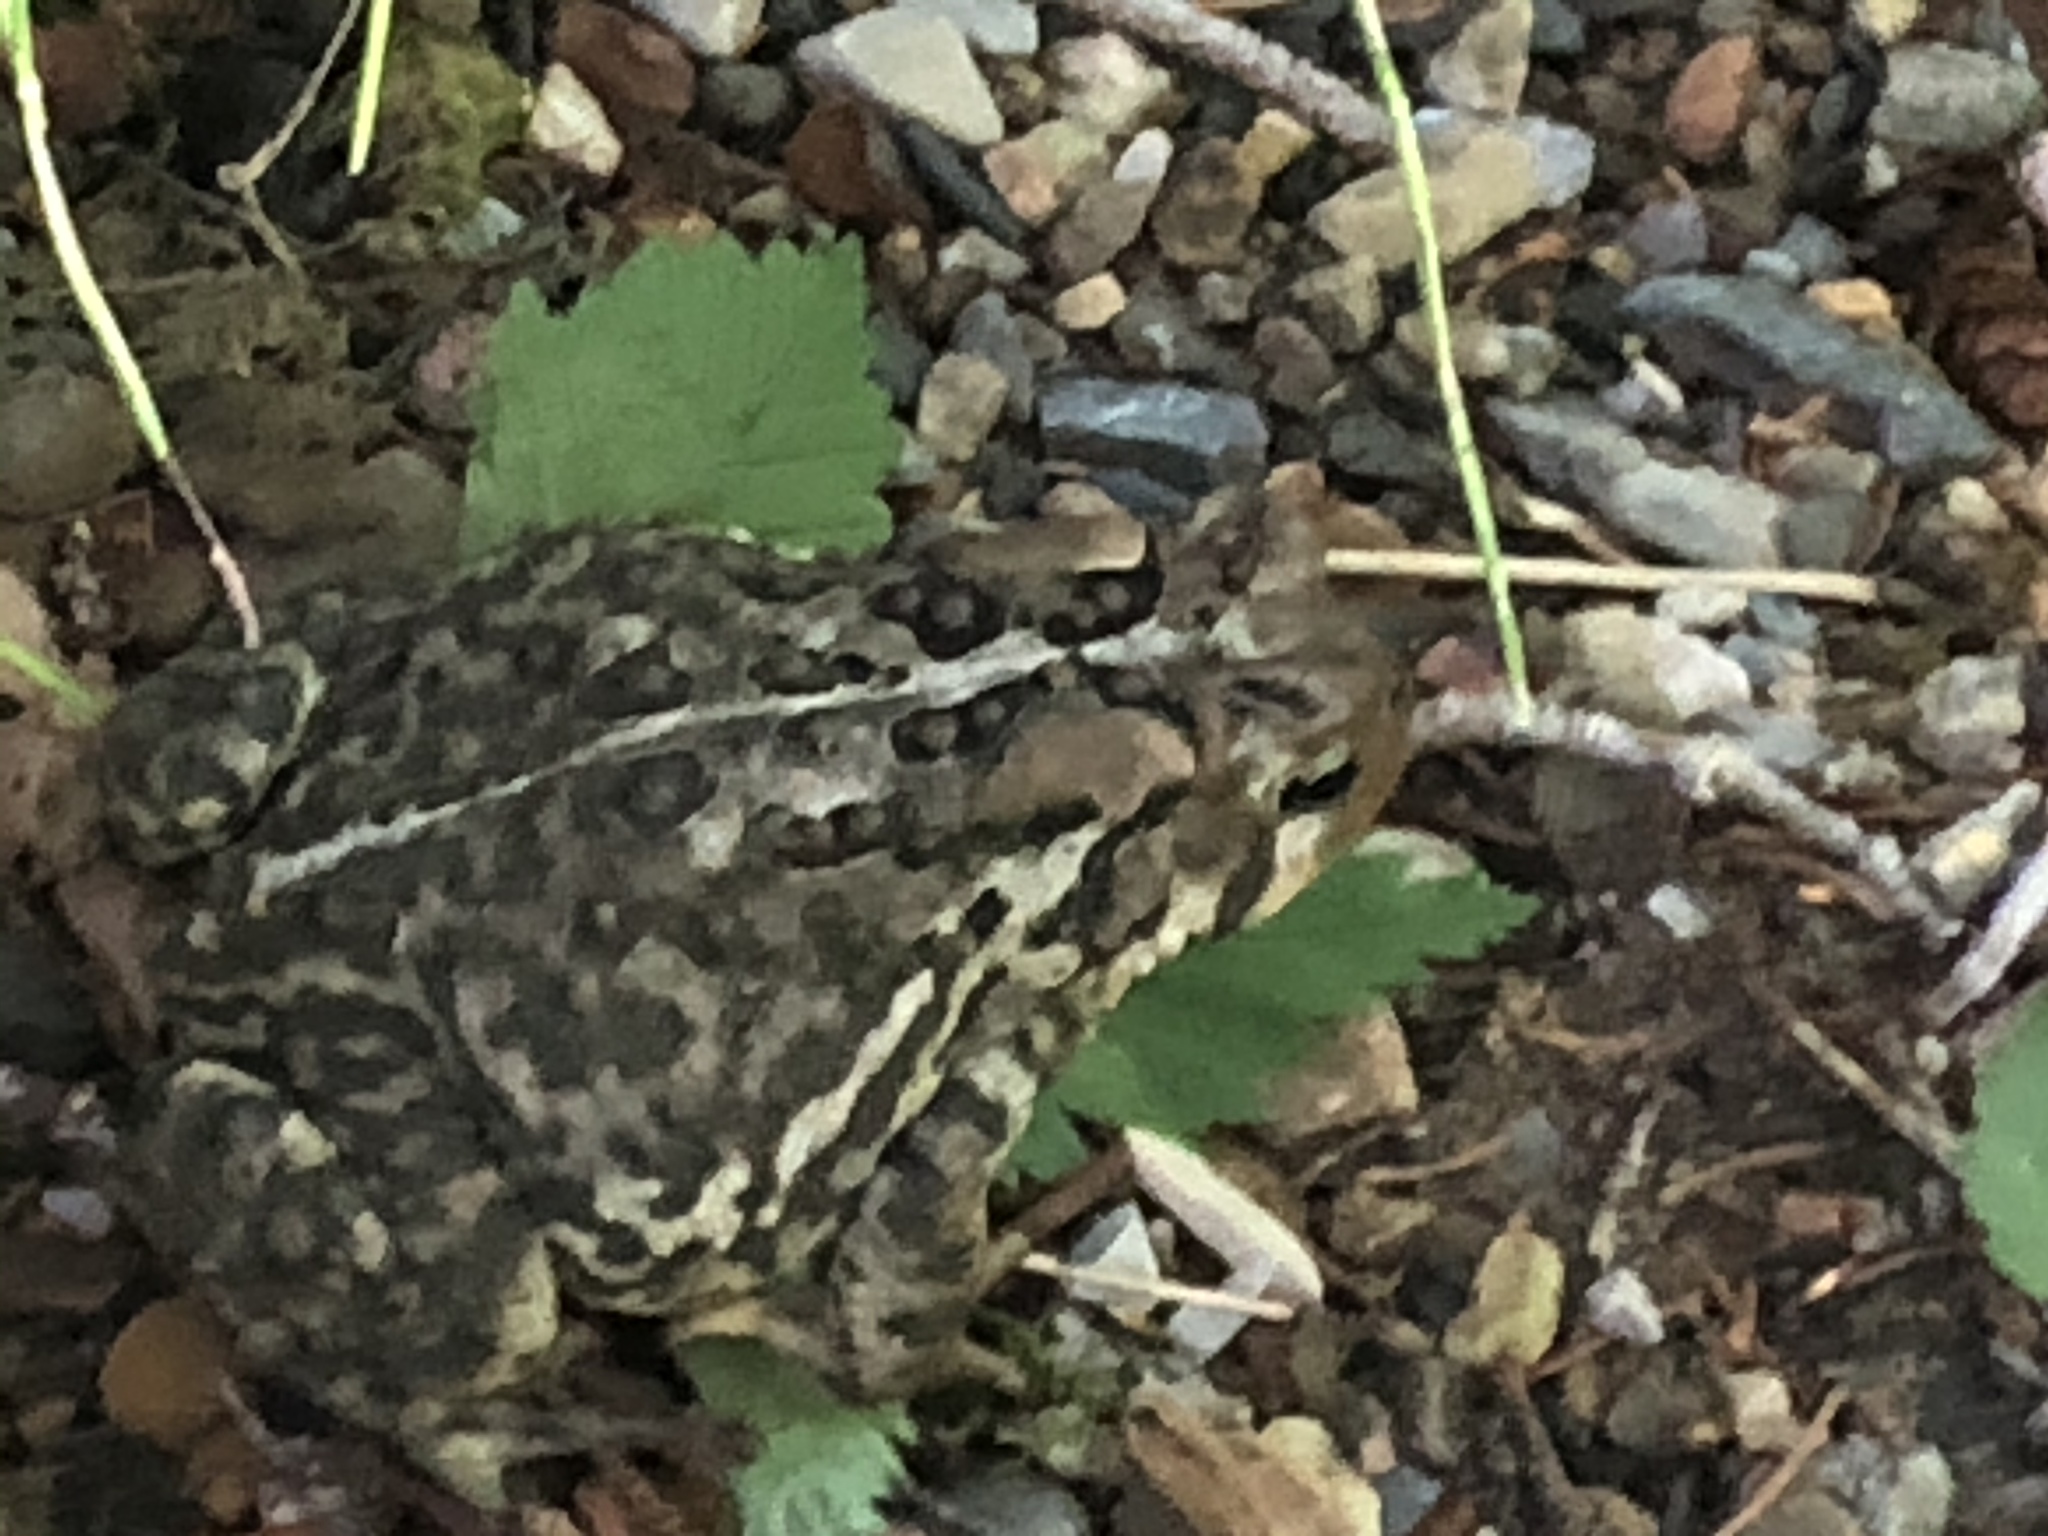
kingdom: Animalia
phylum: Chordata
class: Amphibia
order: Anura
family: Bufonidae
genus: Anaxyrus
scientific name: Anaxyrus americanus
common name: American toad
